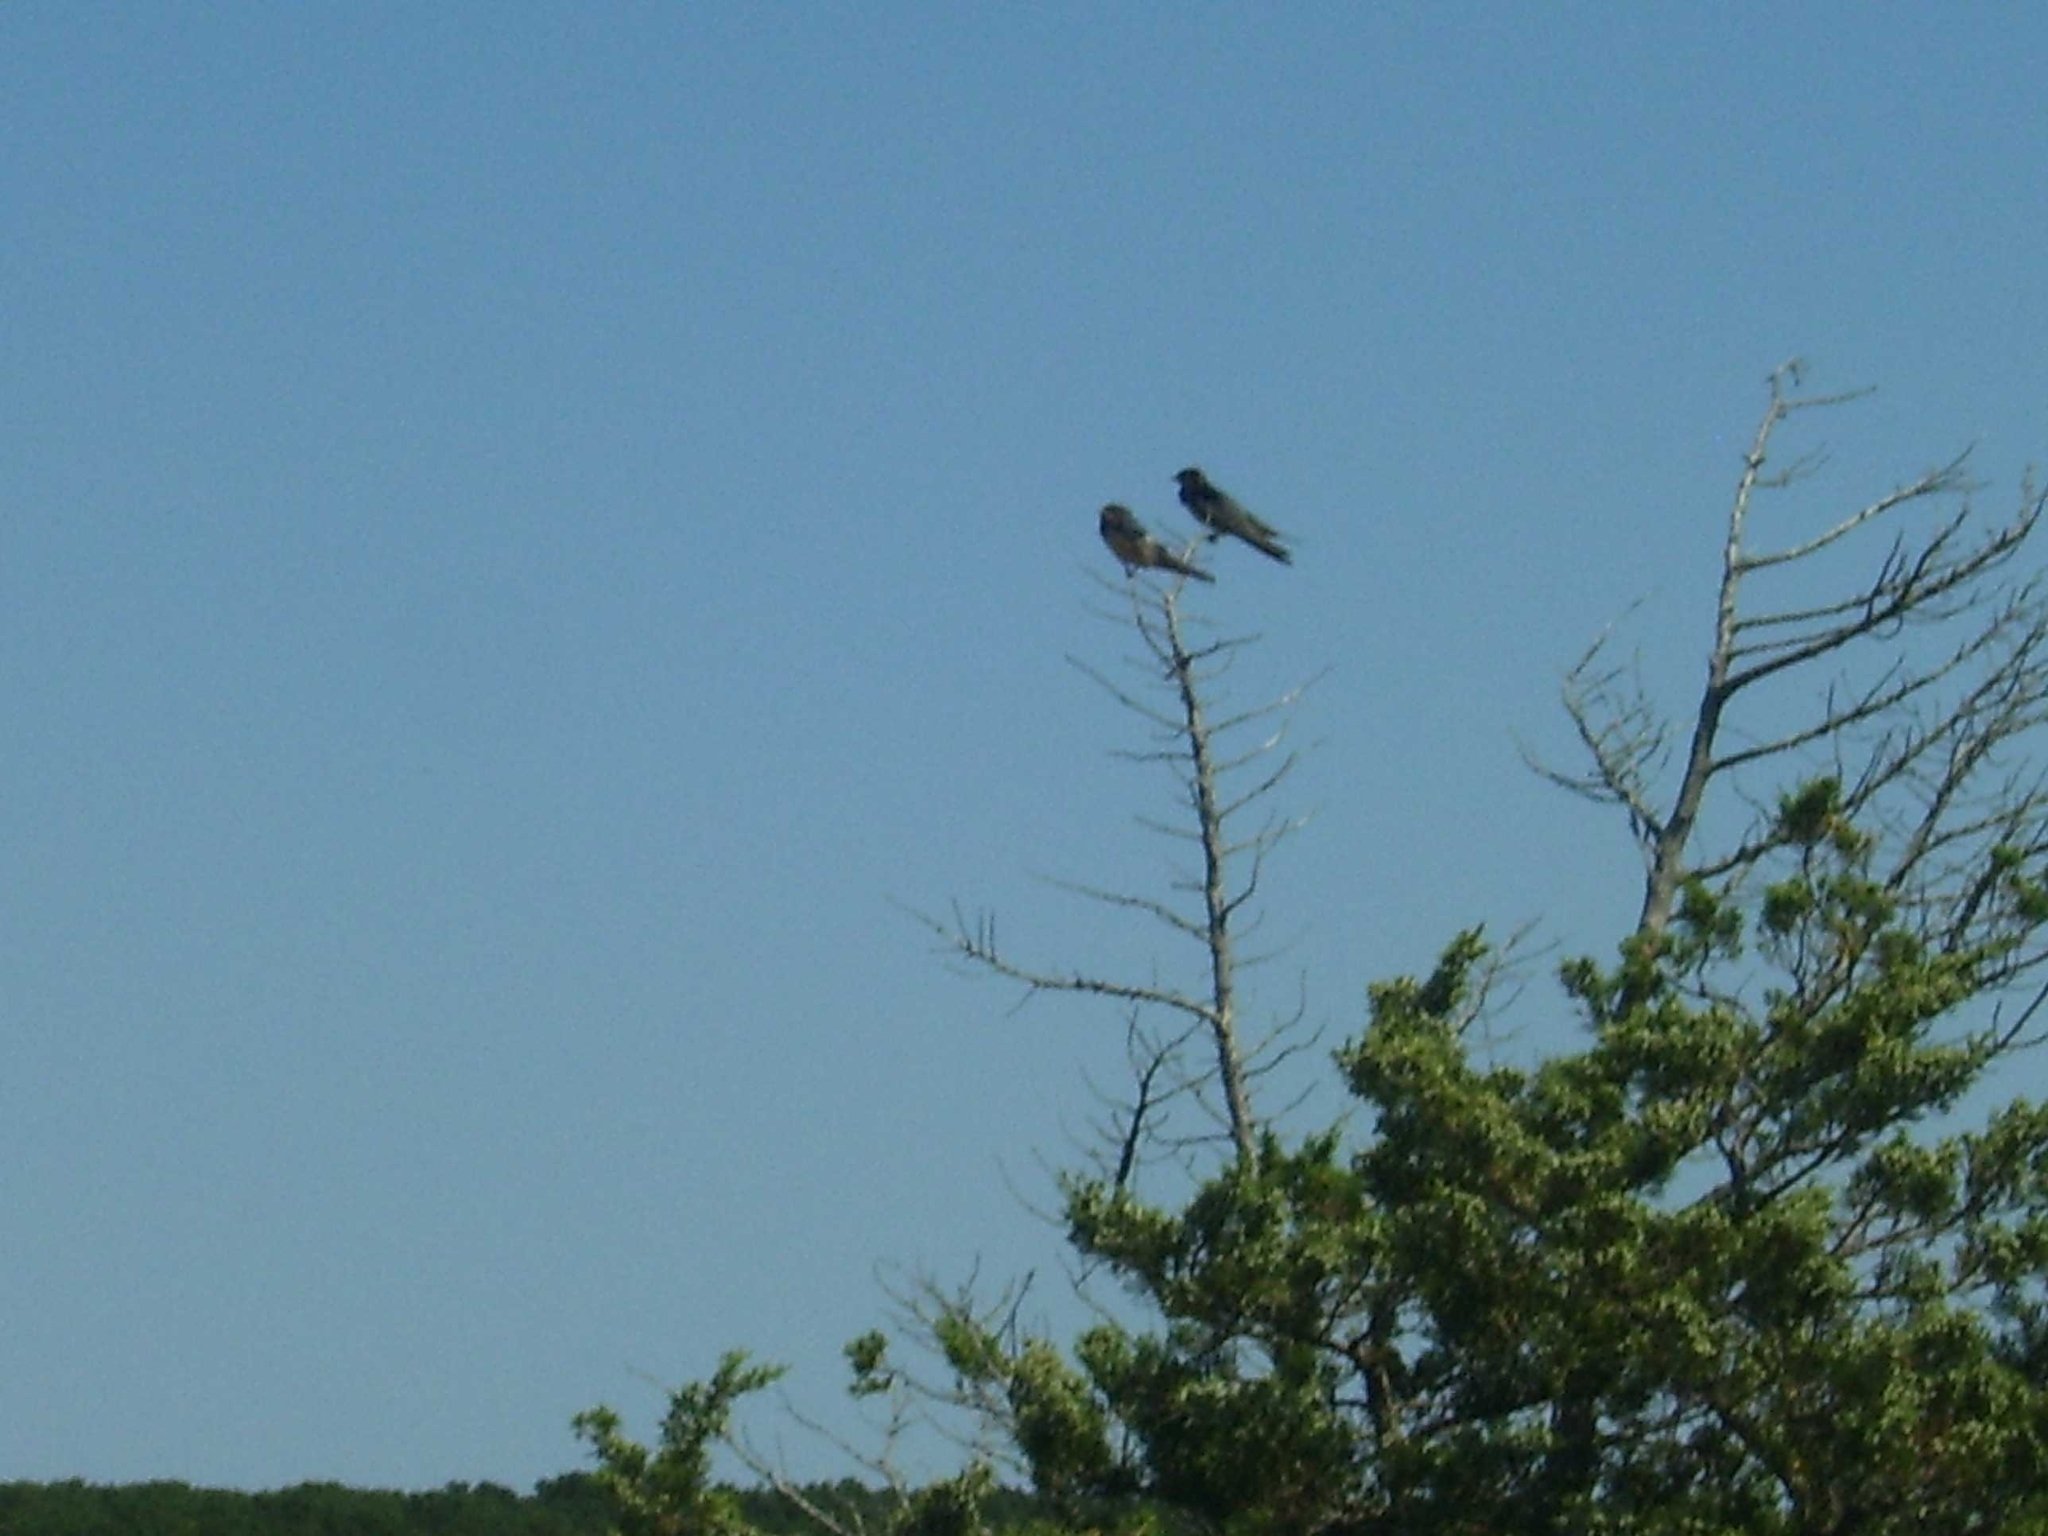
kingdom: Animalia
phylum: Chordata
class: Aves
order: Passeriformes
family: Hirundinidae
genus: Hirundo
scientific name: Hirundo rustica
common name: Barn swallow
